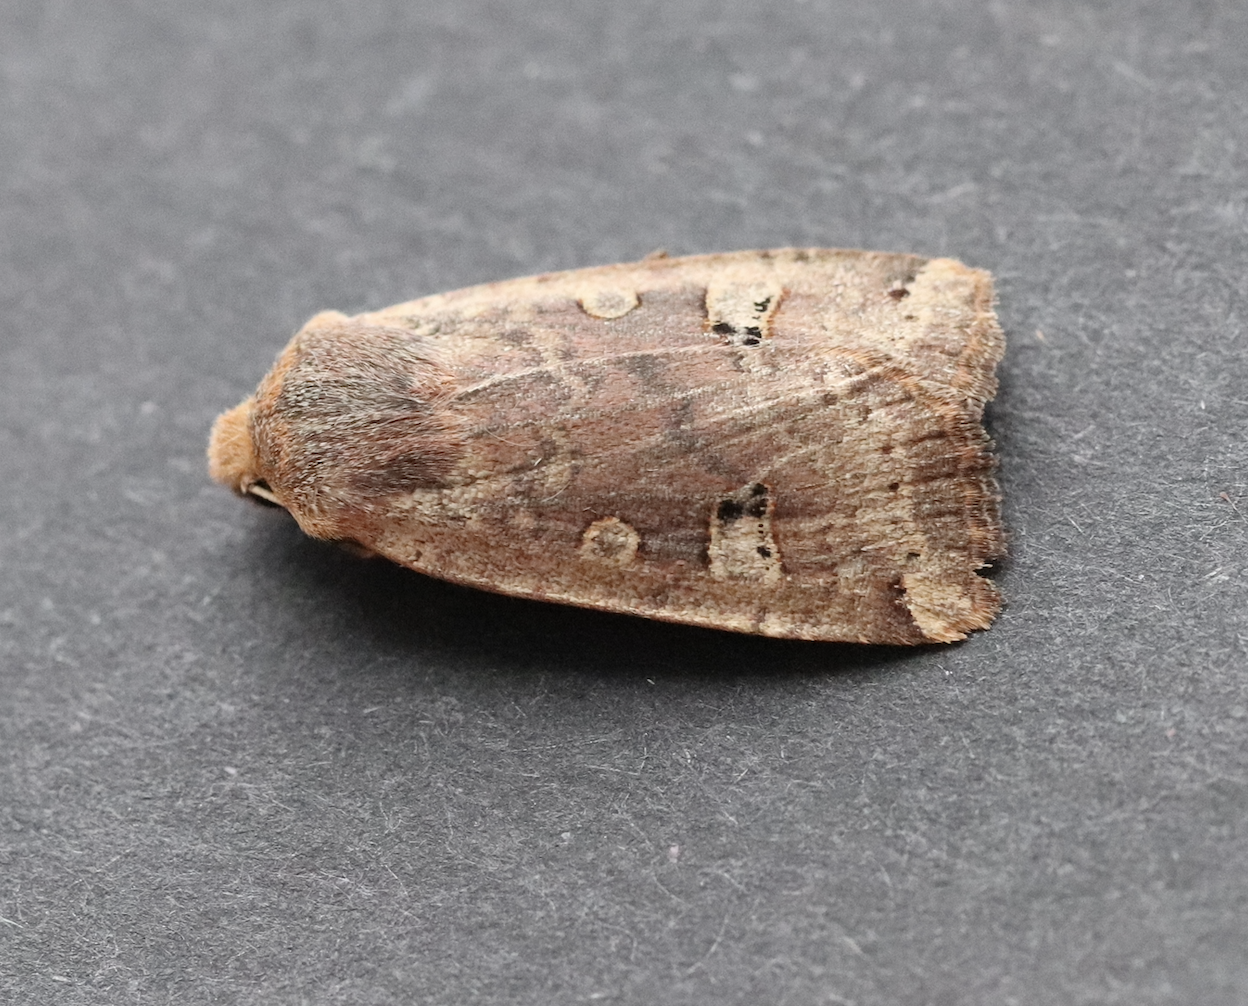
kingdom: Animalia
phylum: Arthropoda
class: Insecta
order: Lepidoptera
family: Noctuidae
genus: Conistra
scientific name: Conistra erythrocephala
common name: Red-headed chestnut
